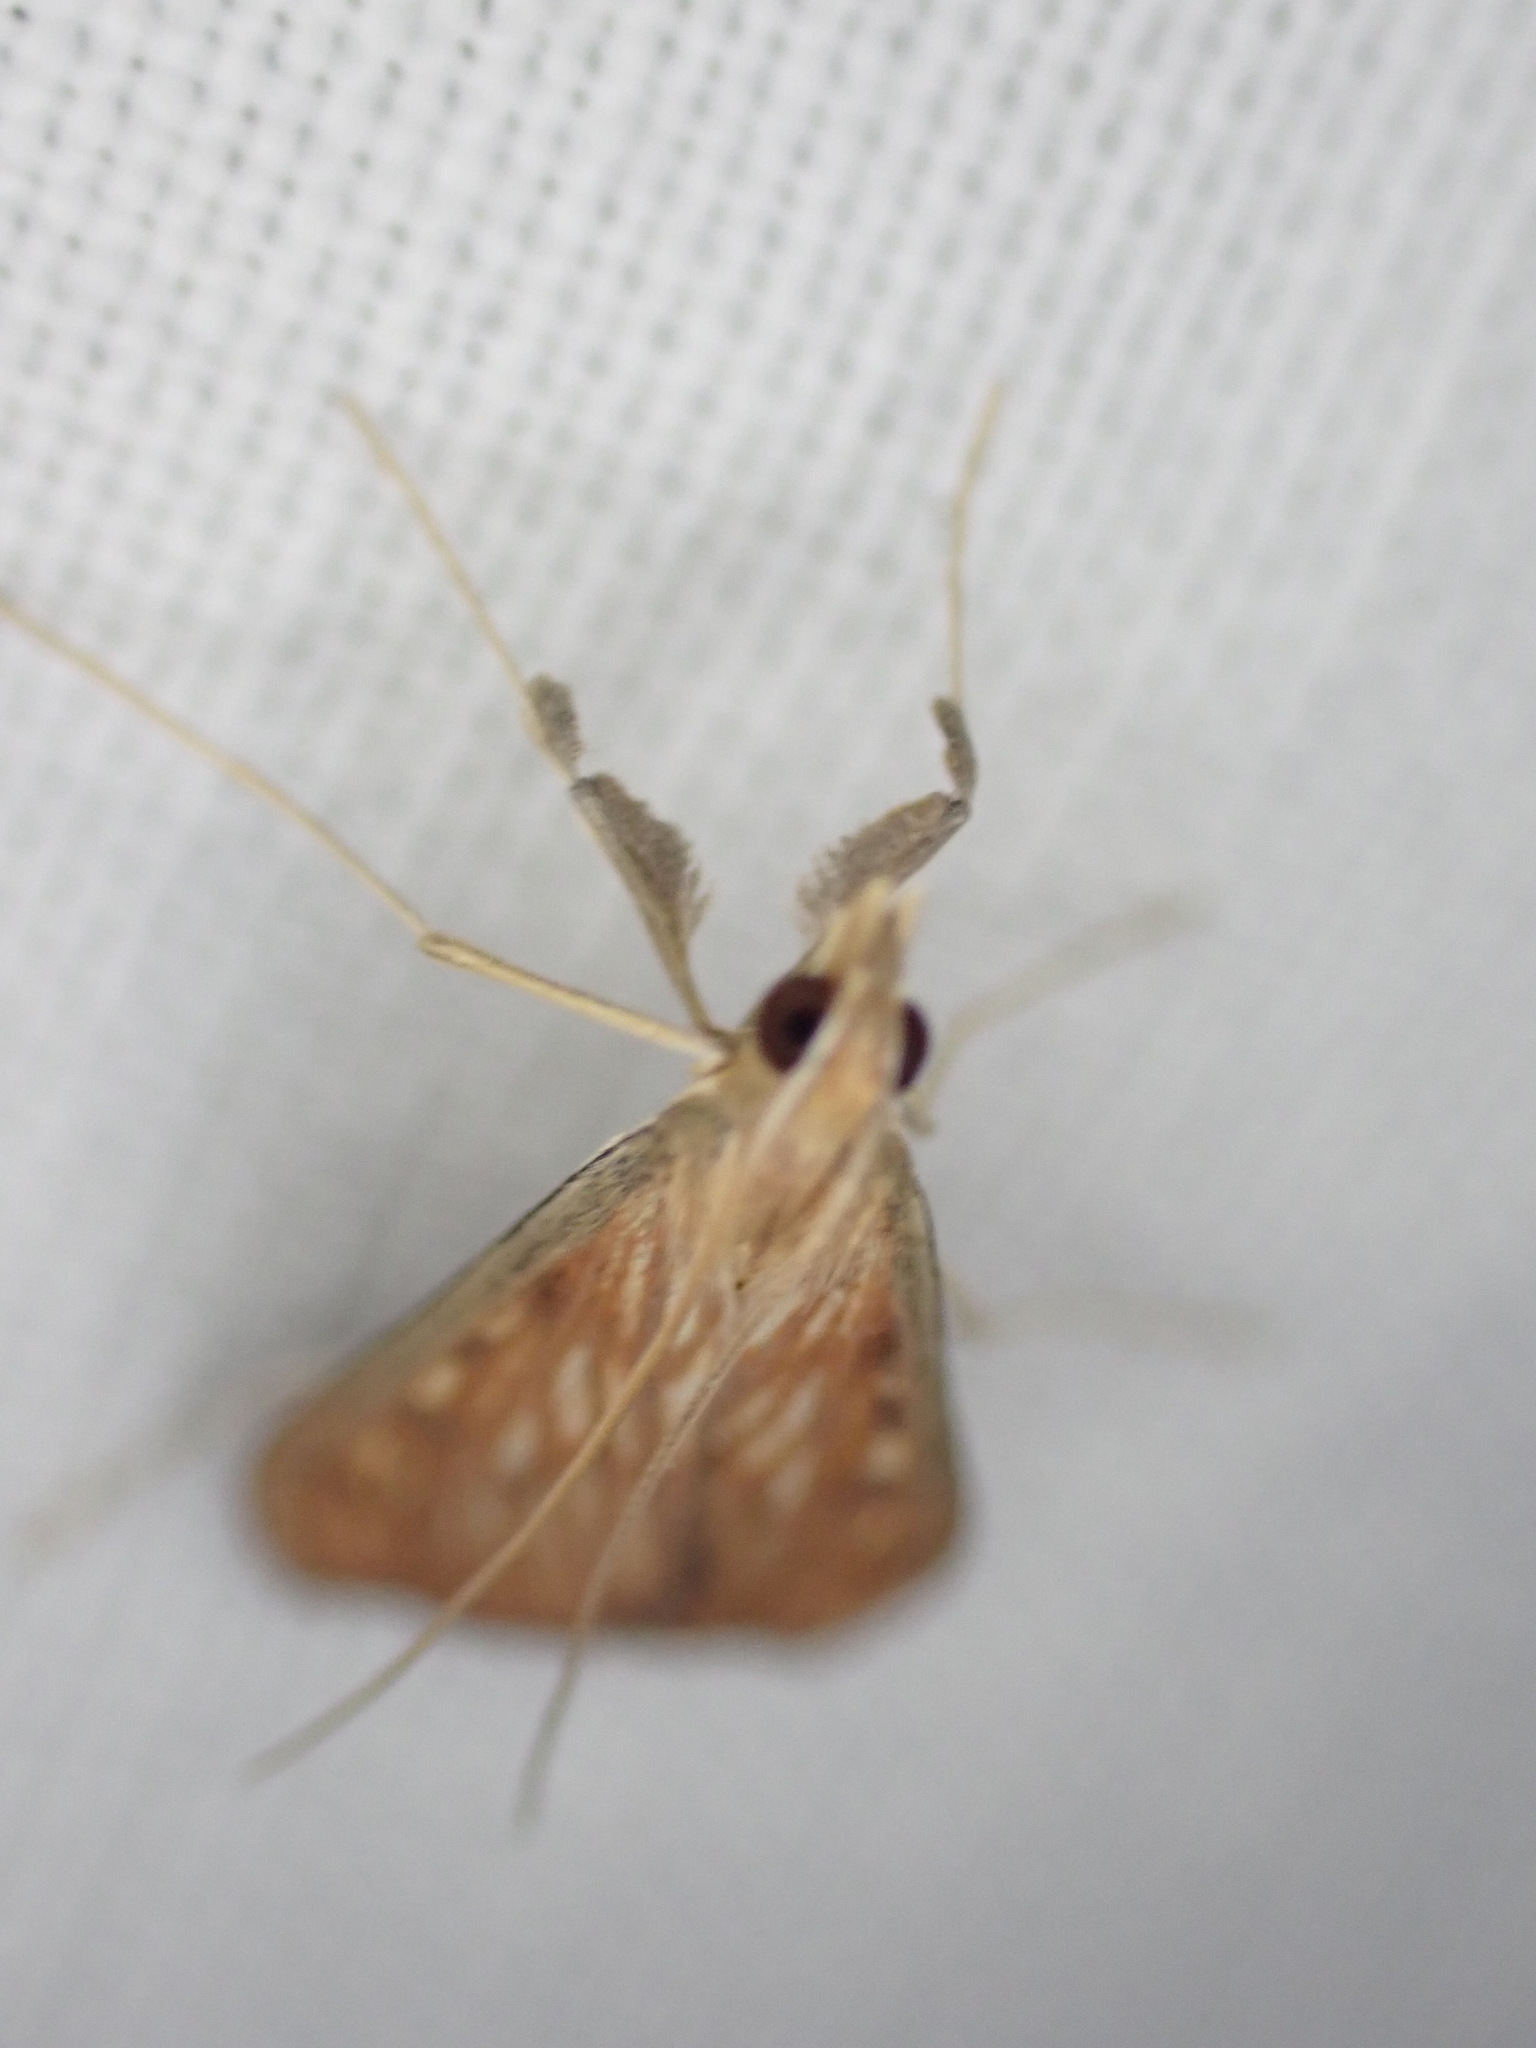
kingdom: Animalia
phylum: Arthropoda
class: Insecta
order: Lepidoptera
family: Crambidae
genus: Antigastra
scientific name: Antigastra catalaunalis
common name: Spanish dot
